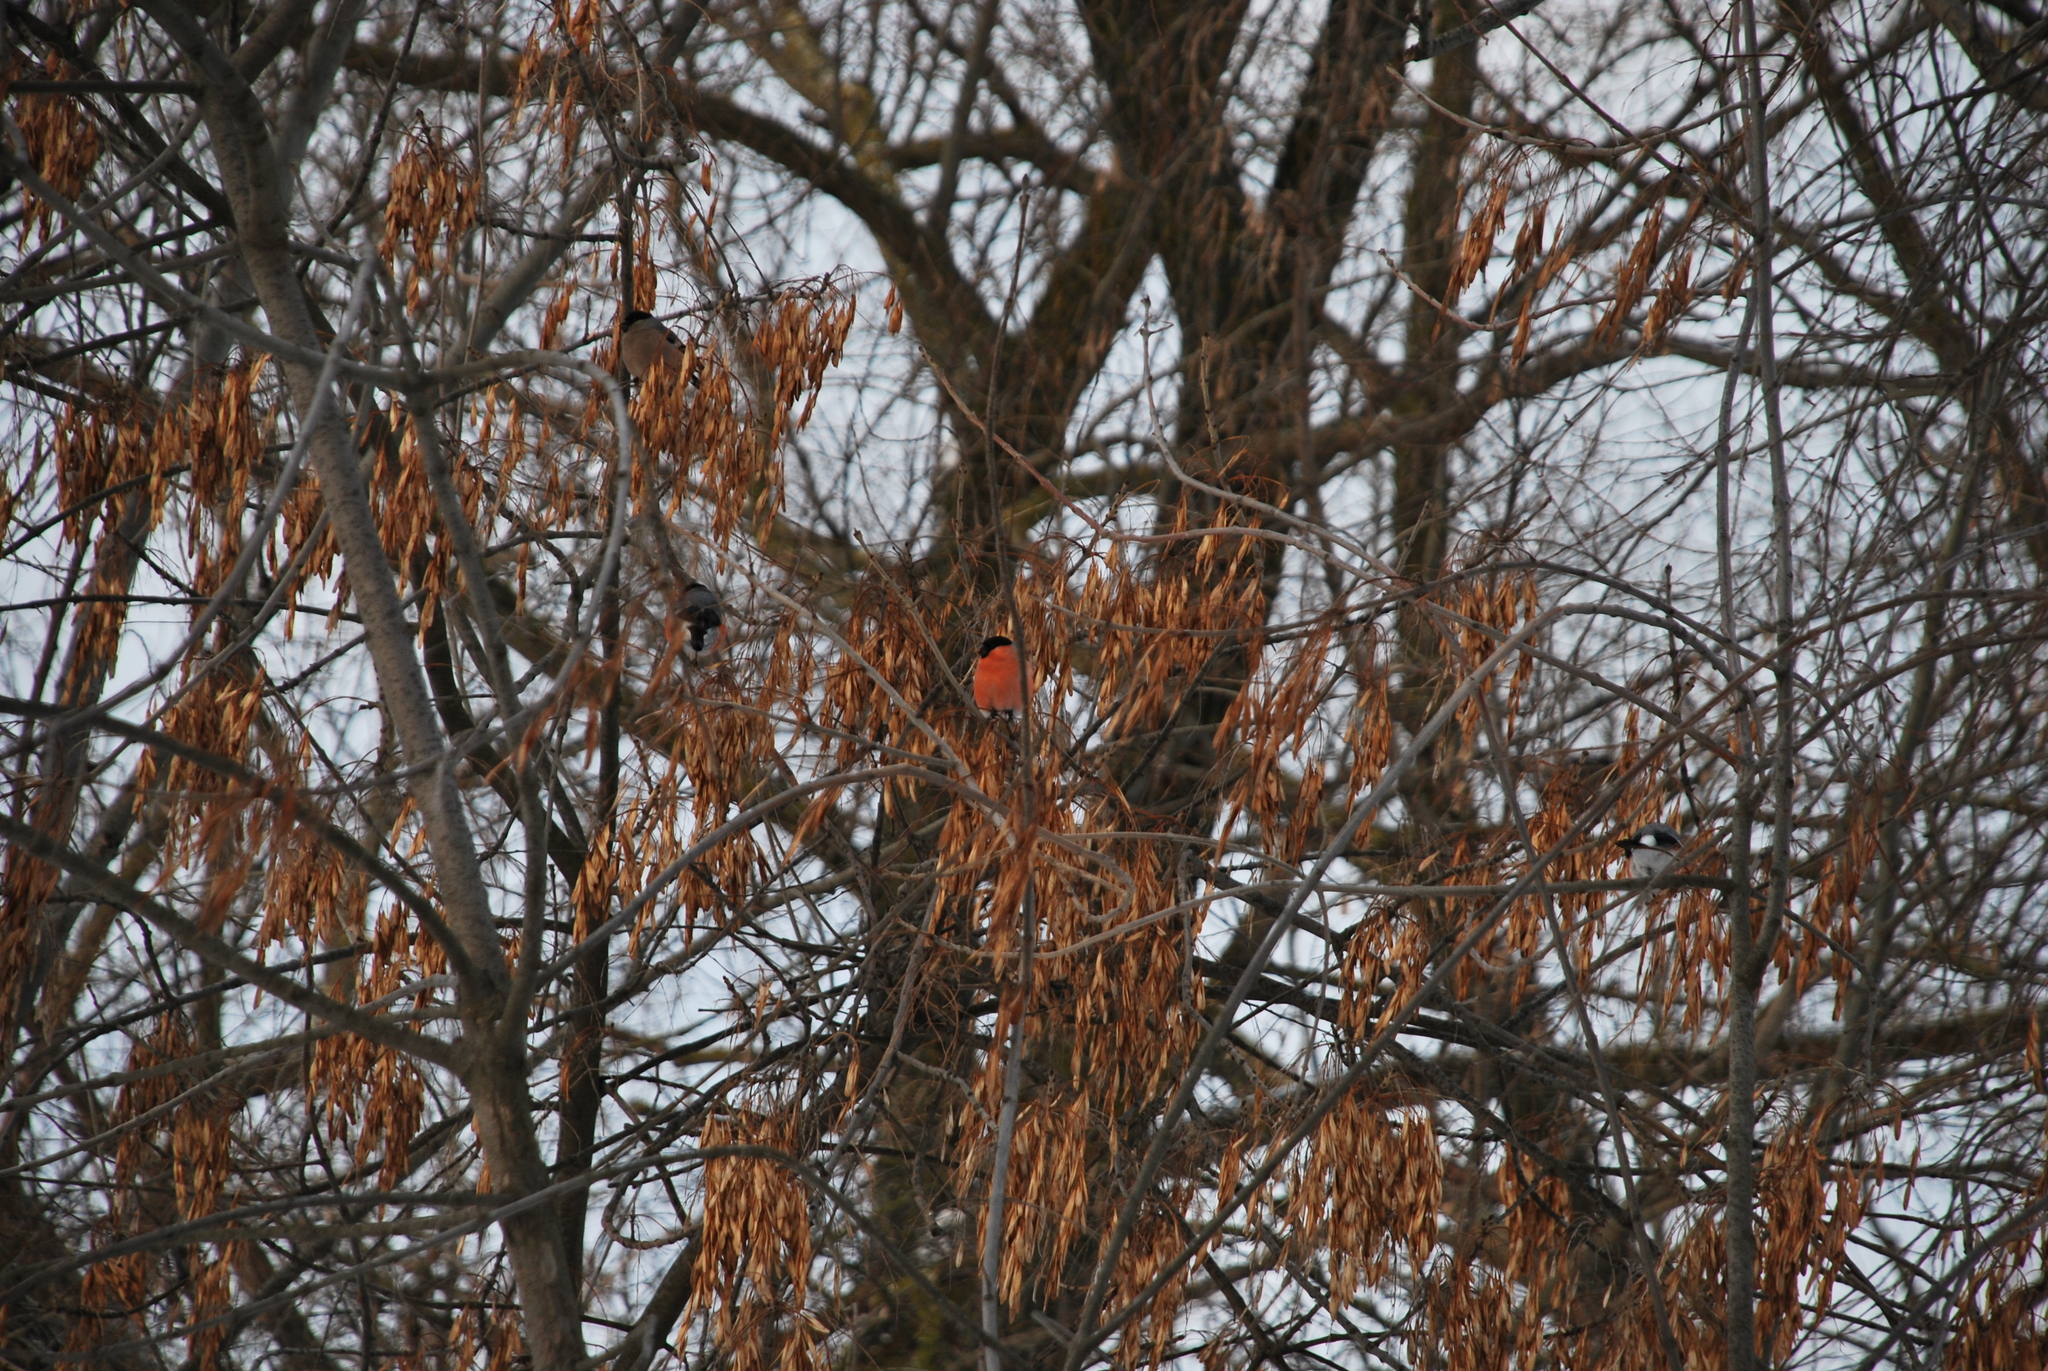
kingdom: Animalia
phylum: Chordata
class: Aves
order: Passeriformes
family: Fringillidae
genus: Pyrrhula
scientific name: Pyrrhula pyrrhula
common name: Eurasian bullfinch
